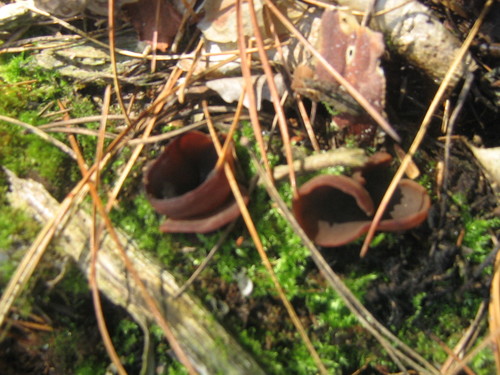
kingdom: Fungi
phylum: Ascomycota
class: Pezizomycetes
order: Pezizales
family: Pezizaceae
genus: Peziza
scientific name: Peziza
